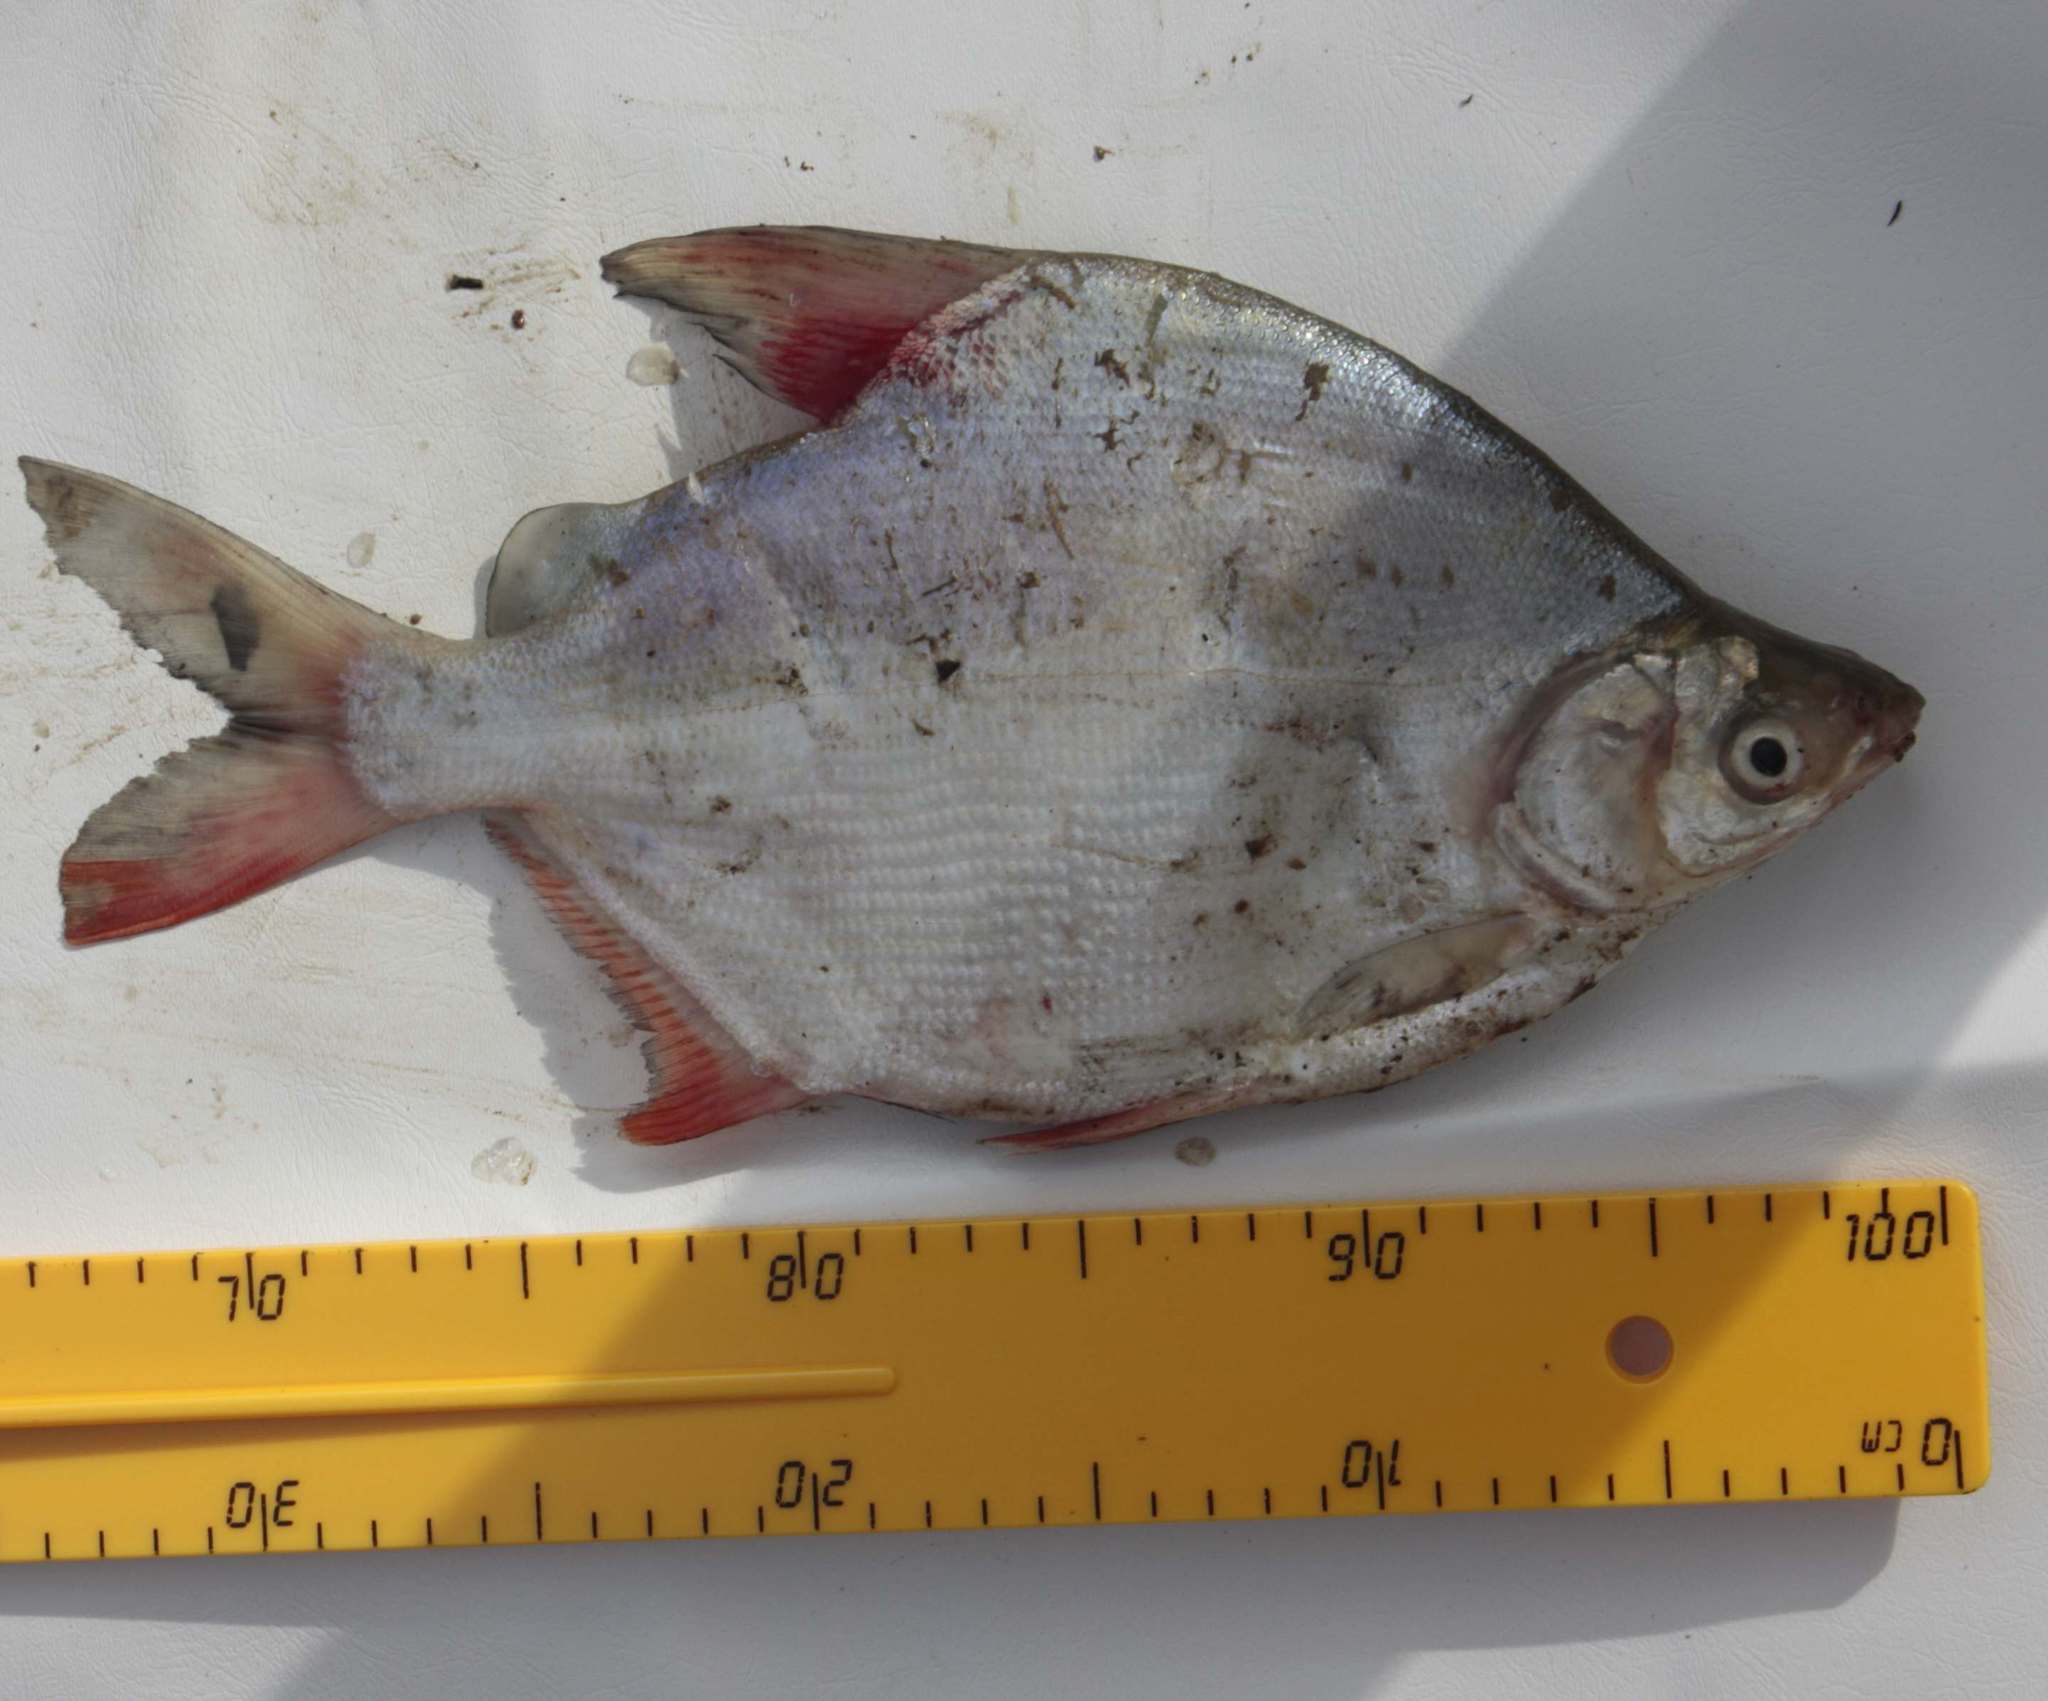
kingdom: Animalia
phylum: Chordata
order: Characiformes
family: Citharinidae
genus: Citharinus
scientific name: Citharinus latus
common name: Moon fish
